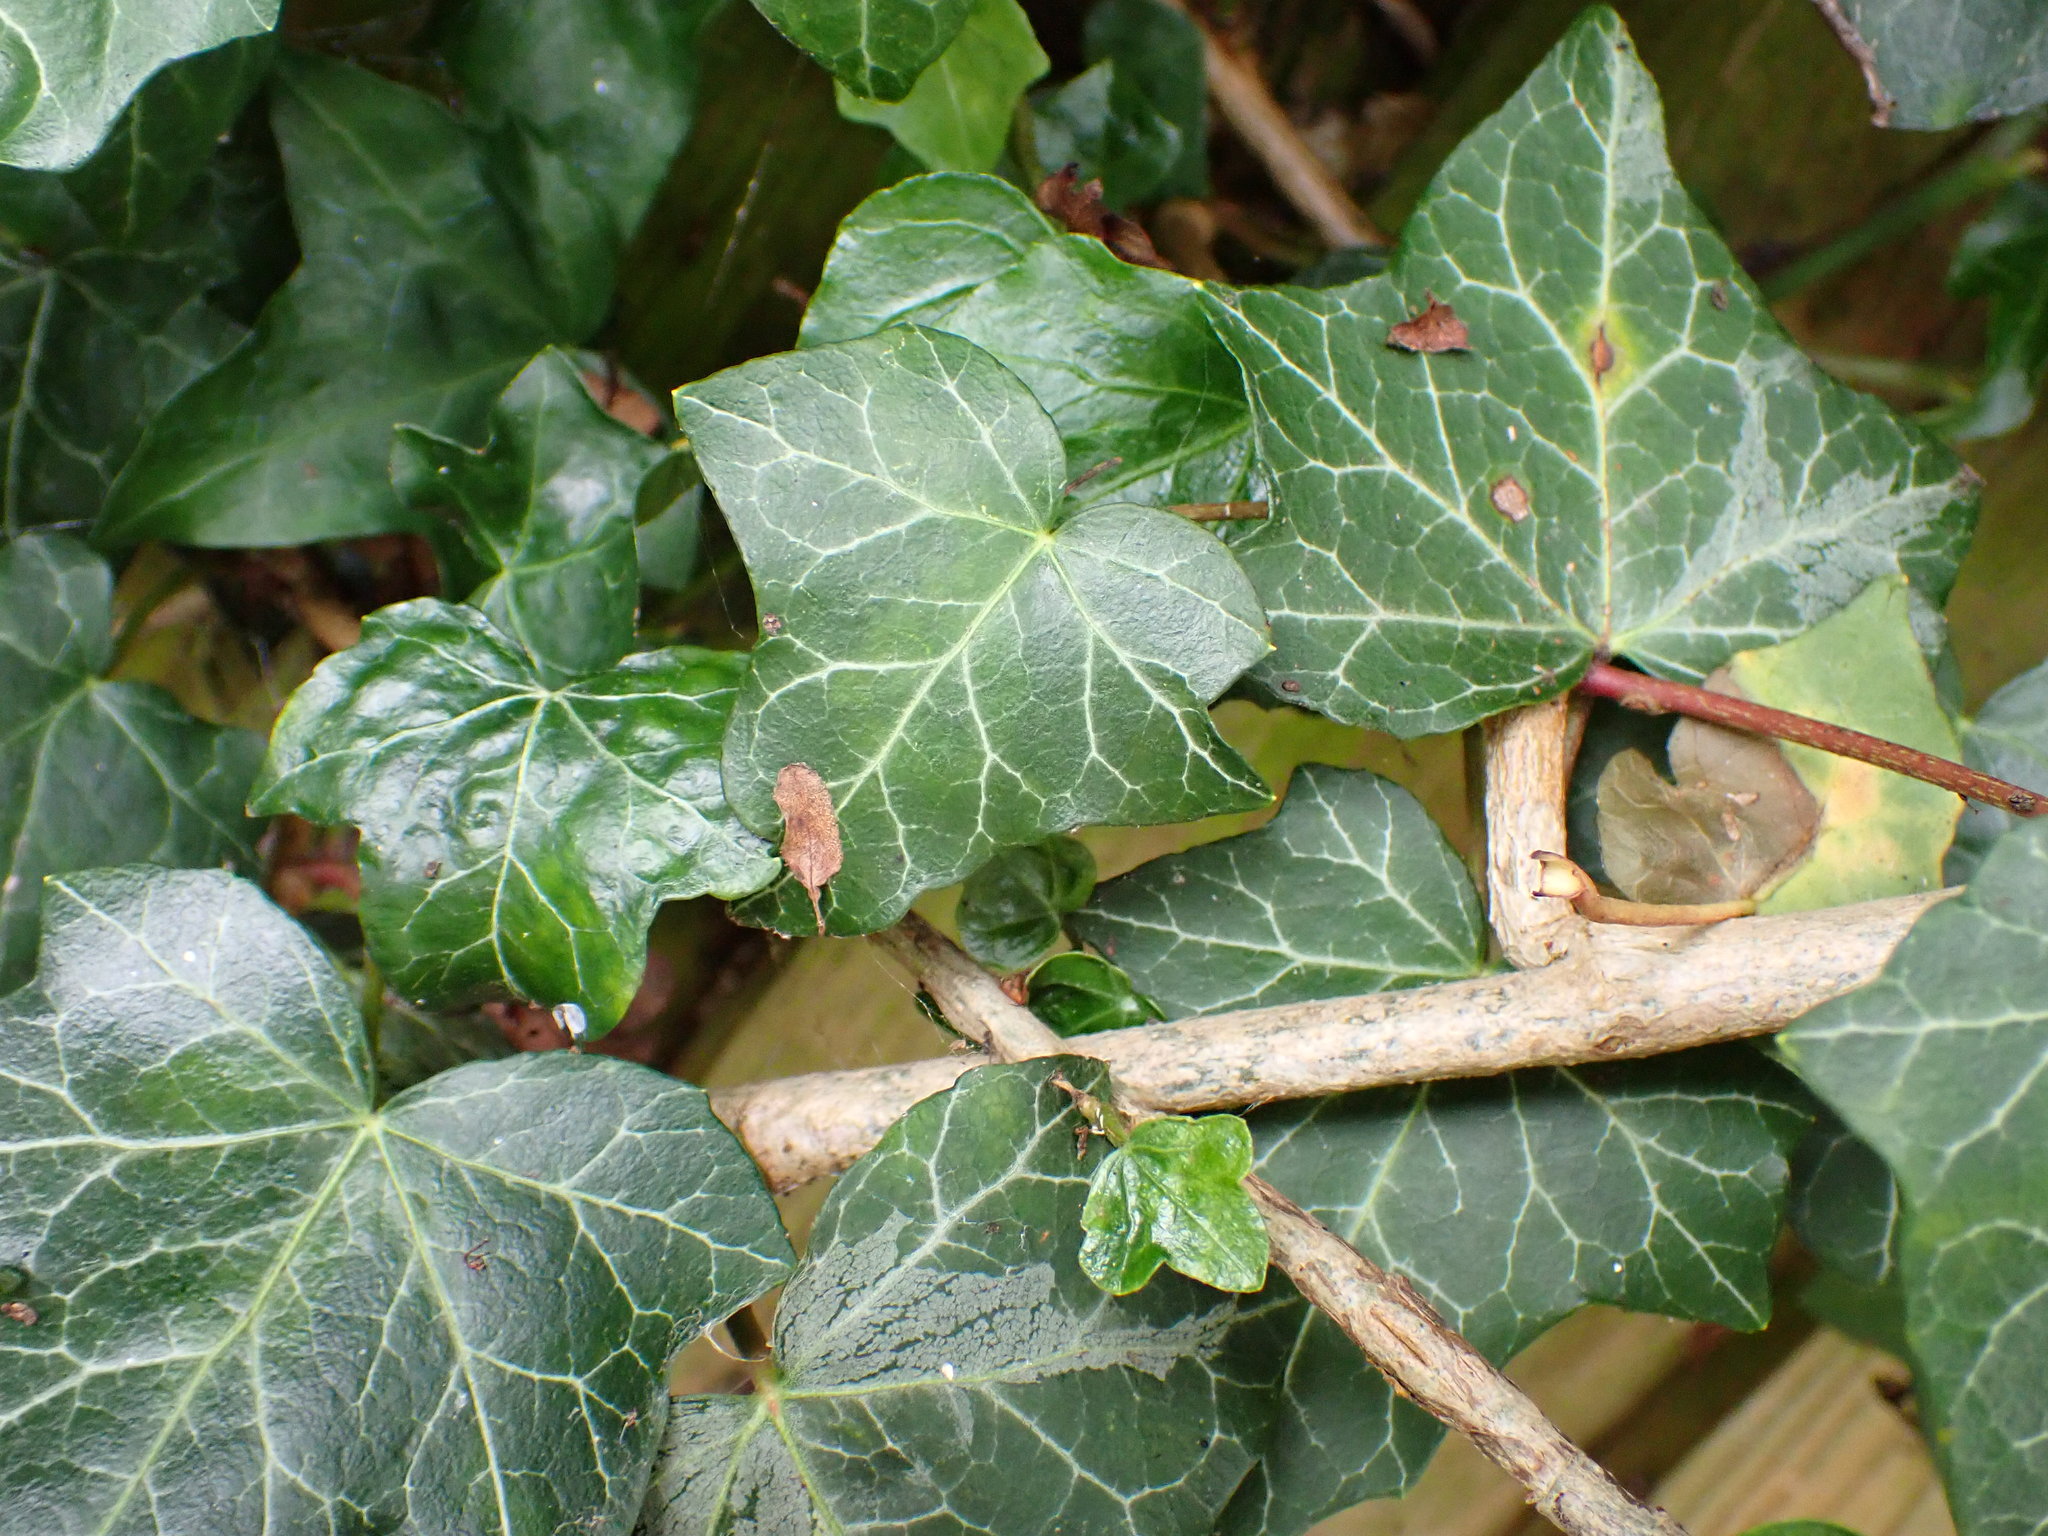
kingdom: Plantae
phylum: Tracheophyta
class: Magnoliopsida
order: Apiales
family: Araliaceae
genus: Hedera
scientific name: Hedera helix
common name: Ivy
